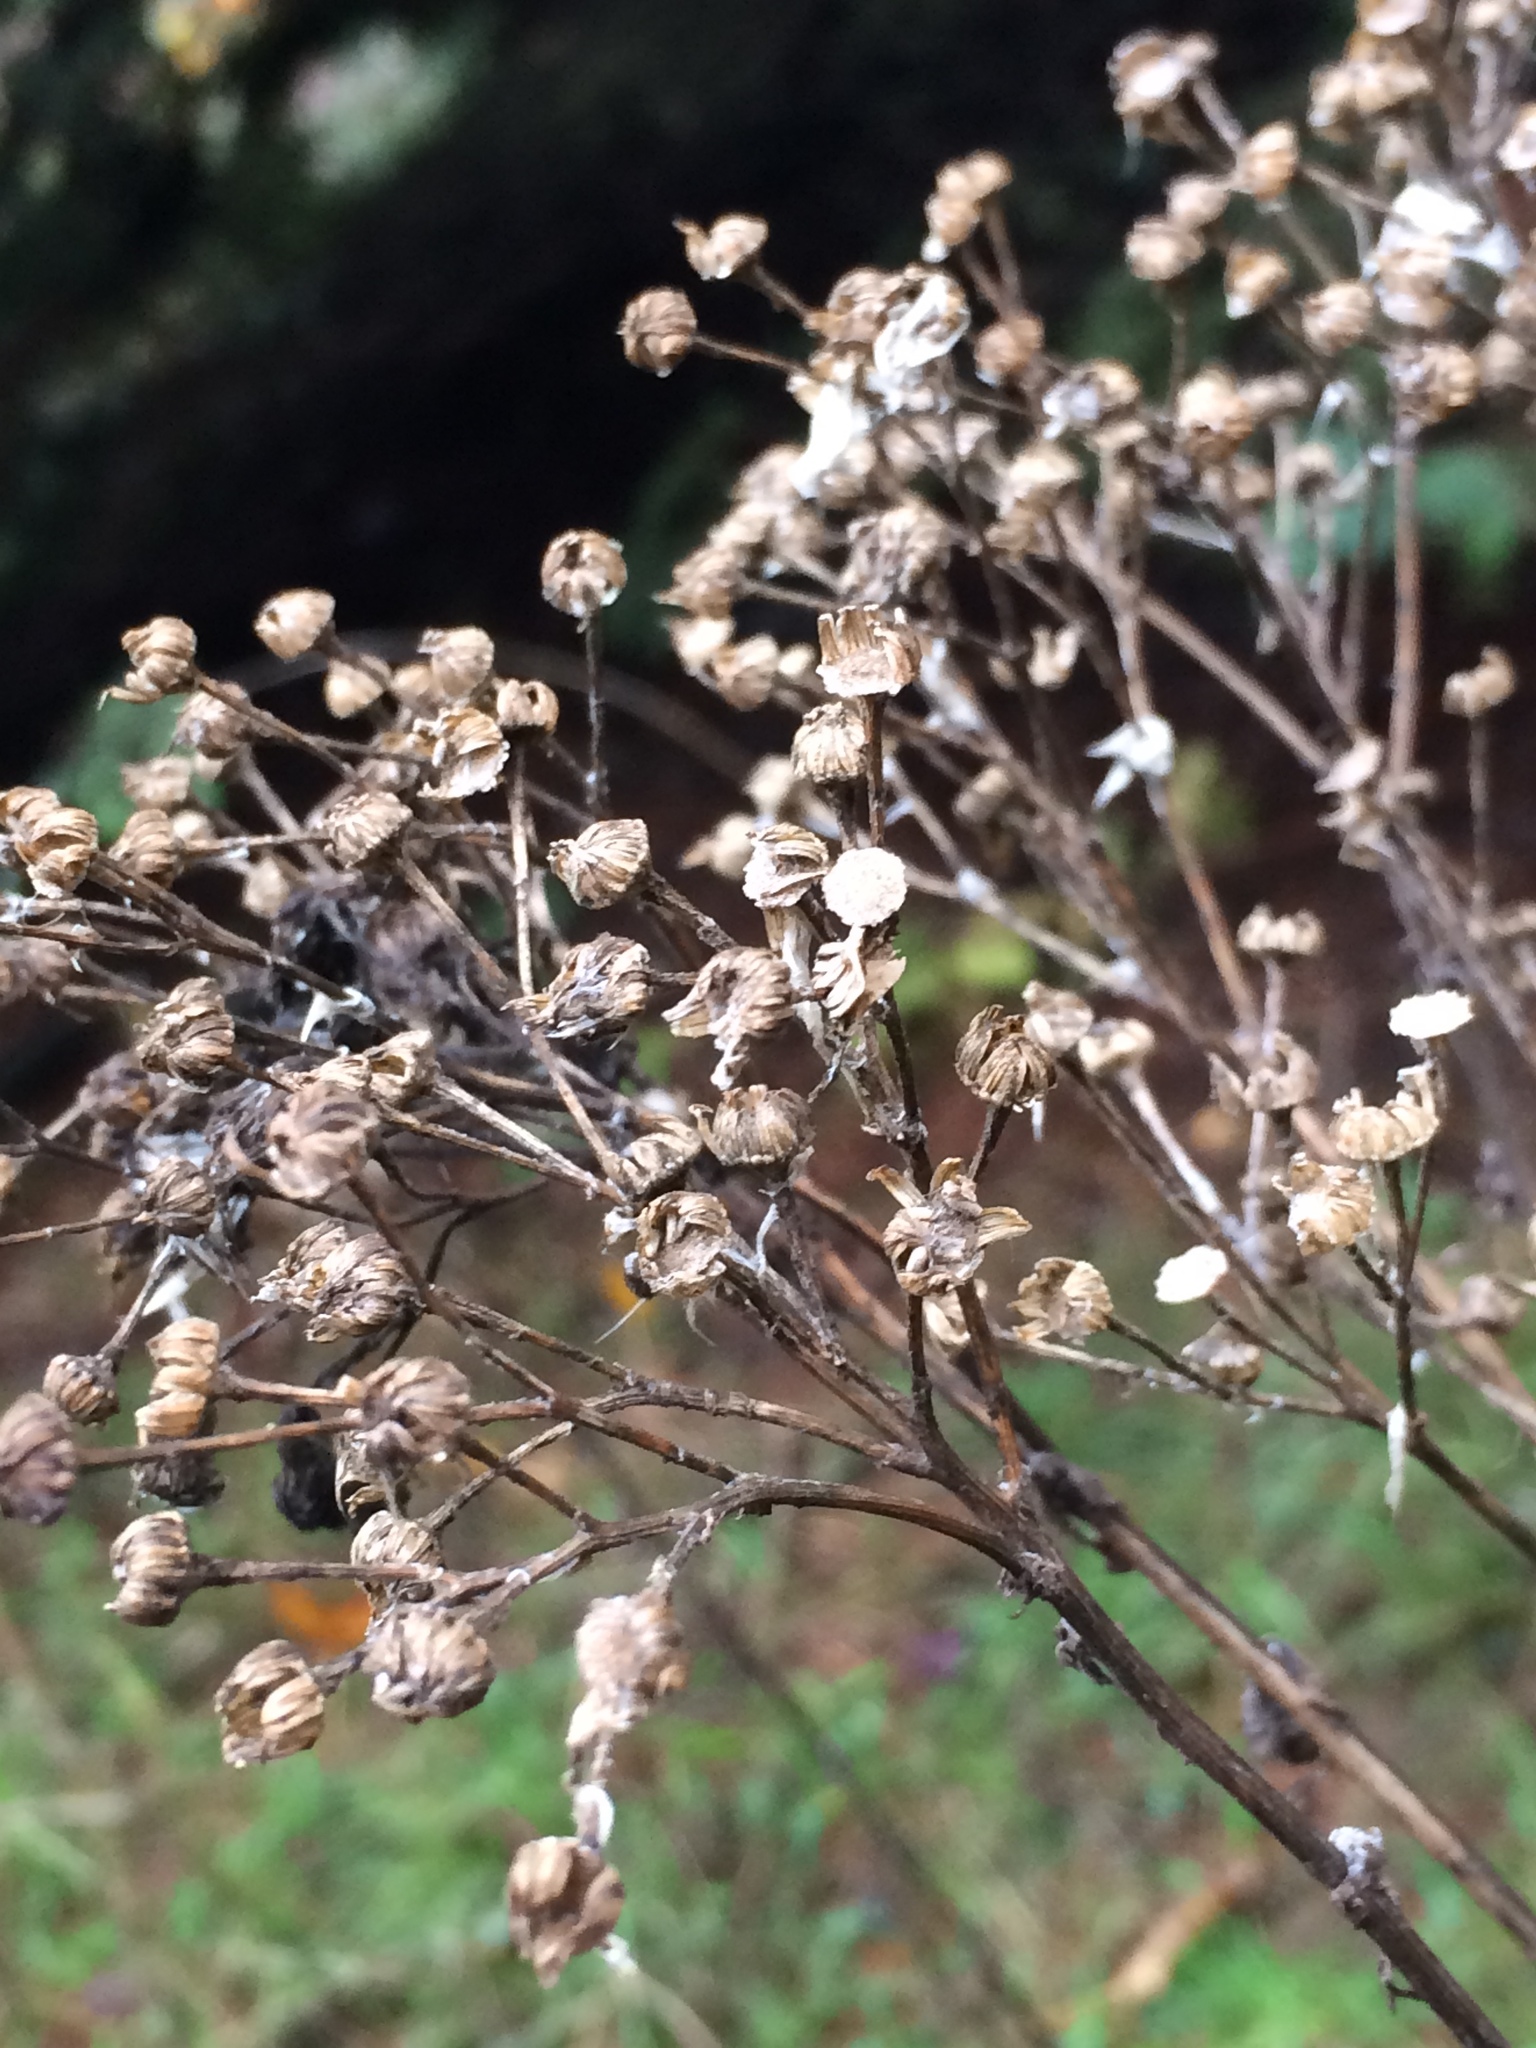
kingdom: Plantae
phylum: Tracheophyta
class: Magnoliopsida
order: Asterales
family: Asteraceae
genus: Jacobaea
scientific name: Jacobaea vulgaris
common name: Stinking willie
